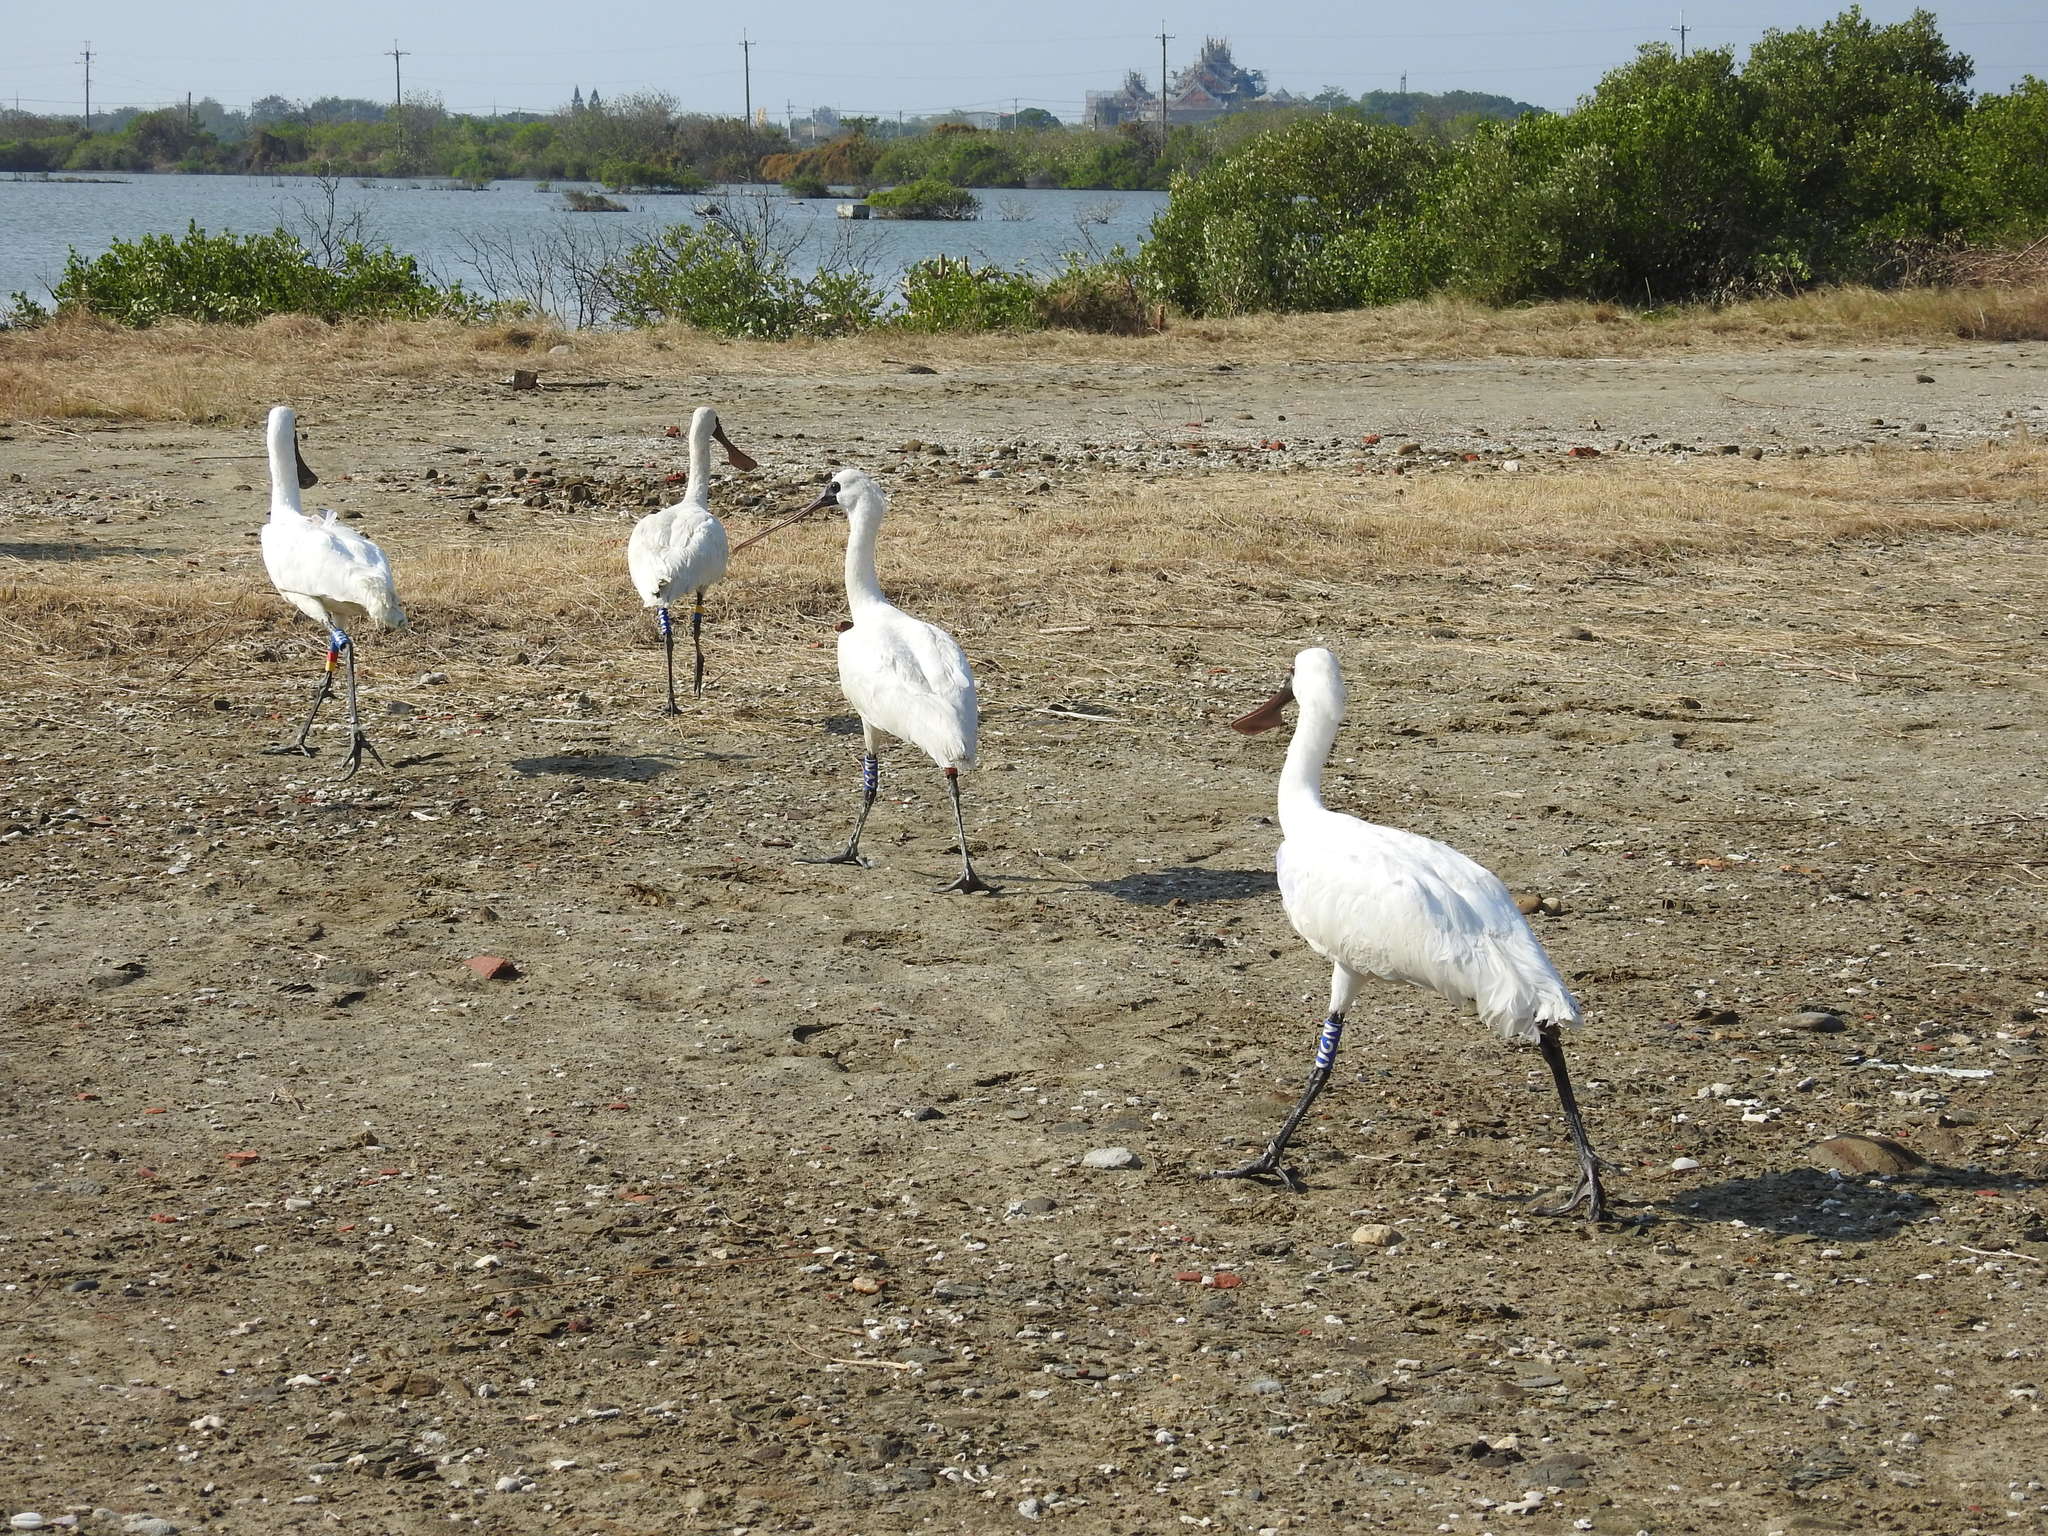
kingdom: Animalia
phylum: Chordata
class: Aves
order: Pelecaniformes
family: Threskiornithidae
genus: Platalea
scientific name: Platalea minor
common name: Black-faced spoonbill
